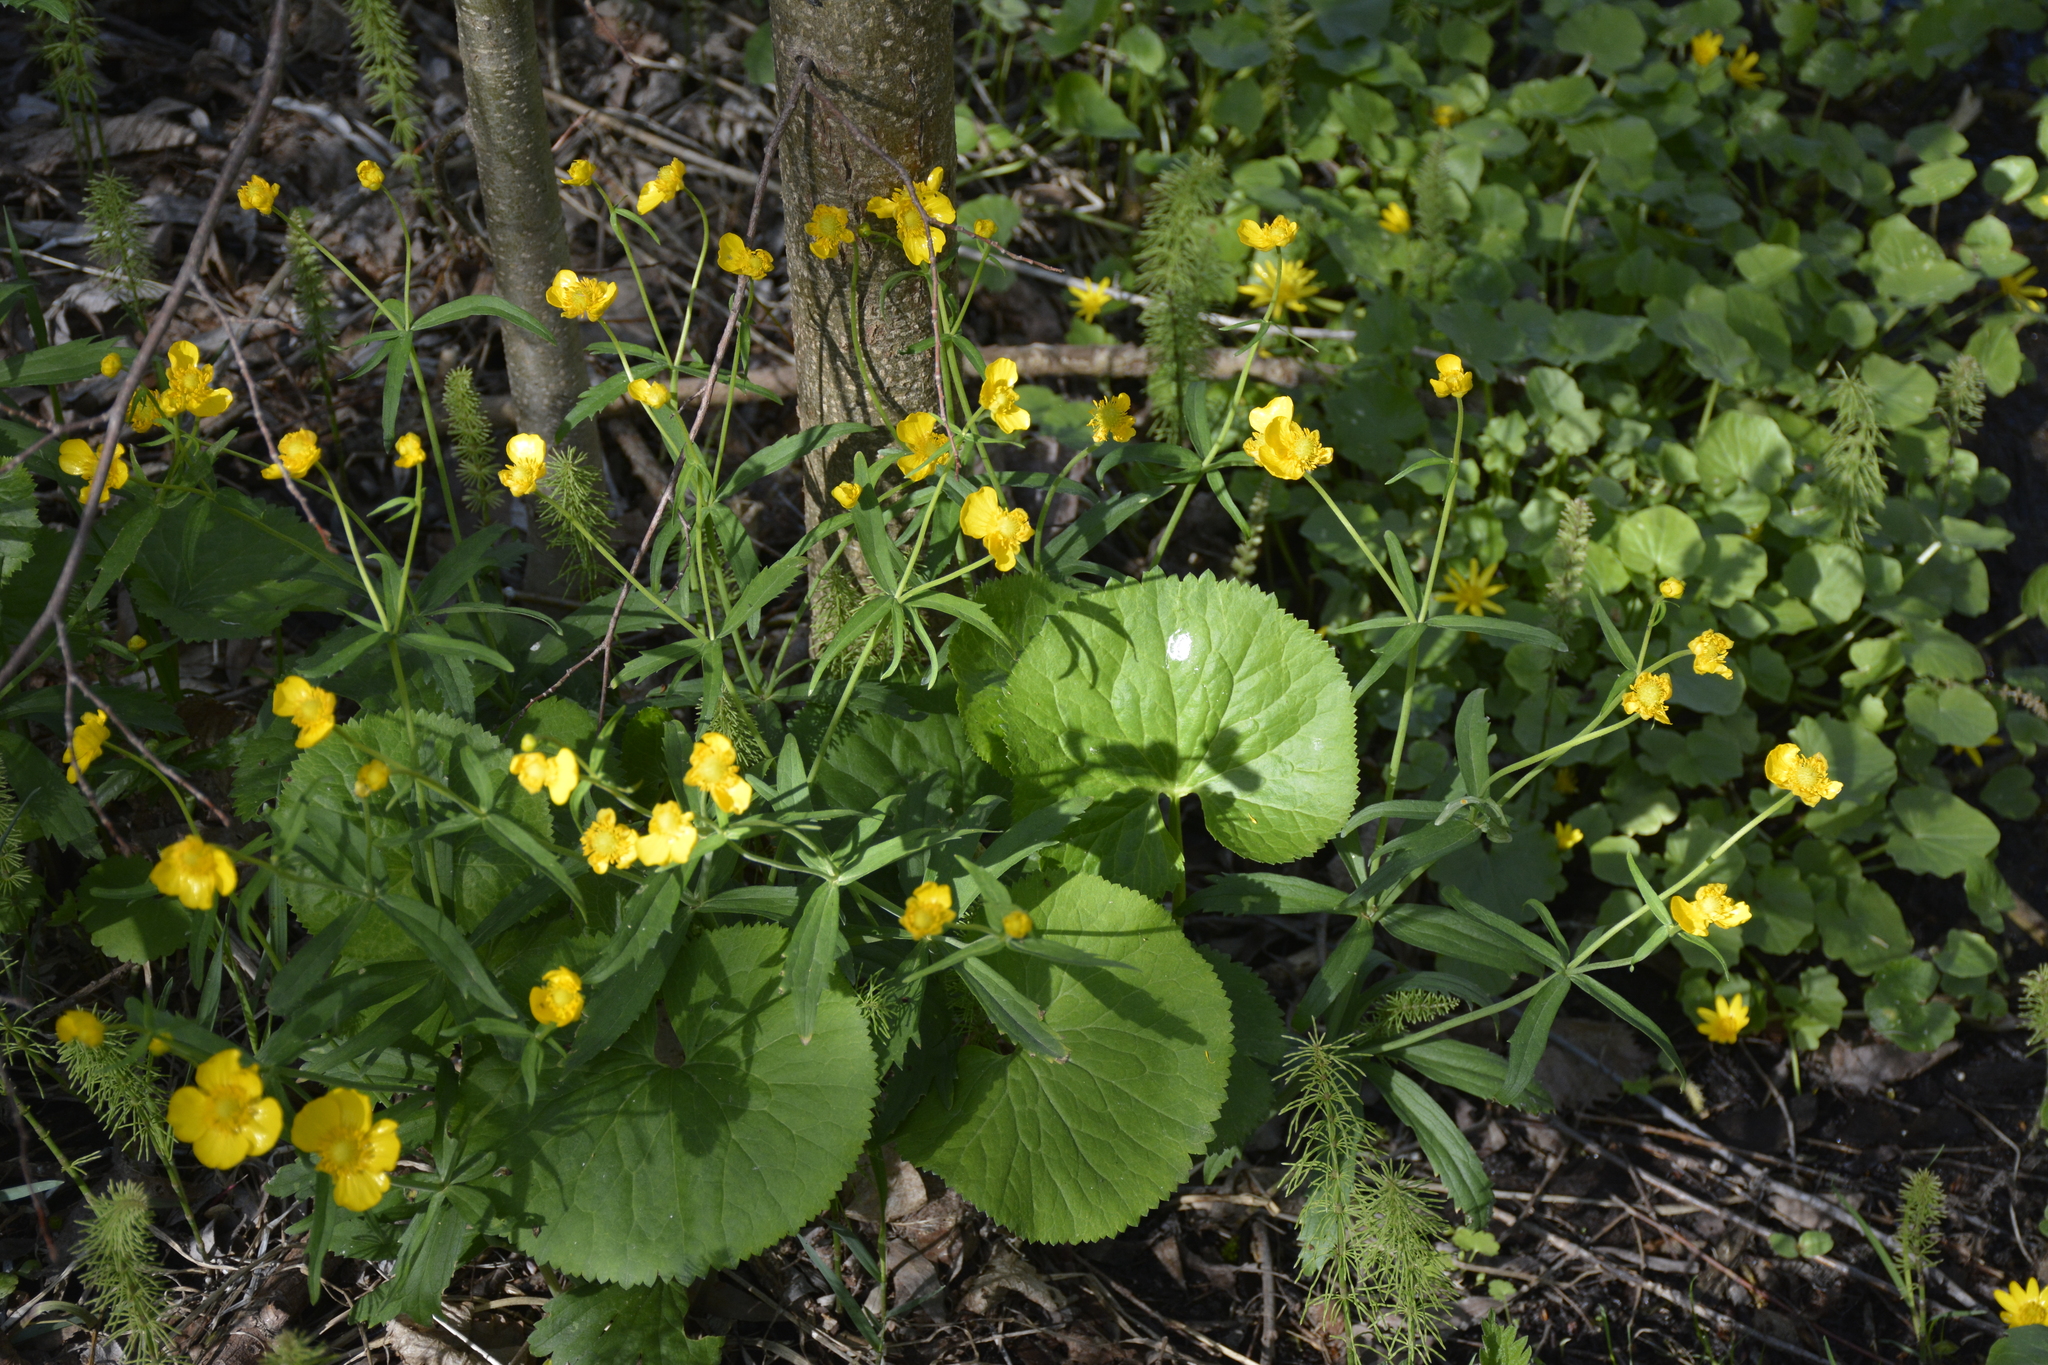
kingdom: Plantae
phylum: Tracheophyta
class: Magnoliopsida
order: Ranunculales
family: Ranunculaceae
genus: Ranunculus
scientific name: Ranunculus cassubicus
